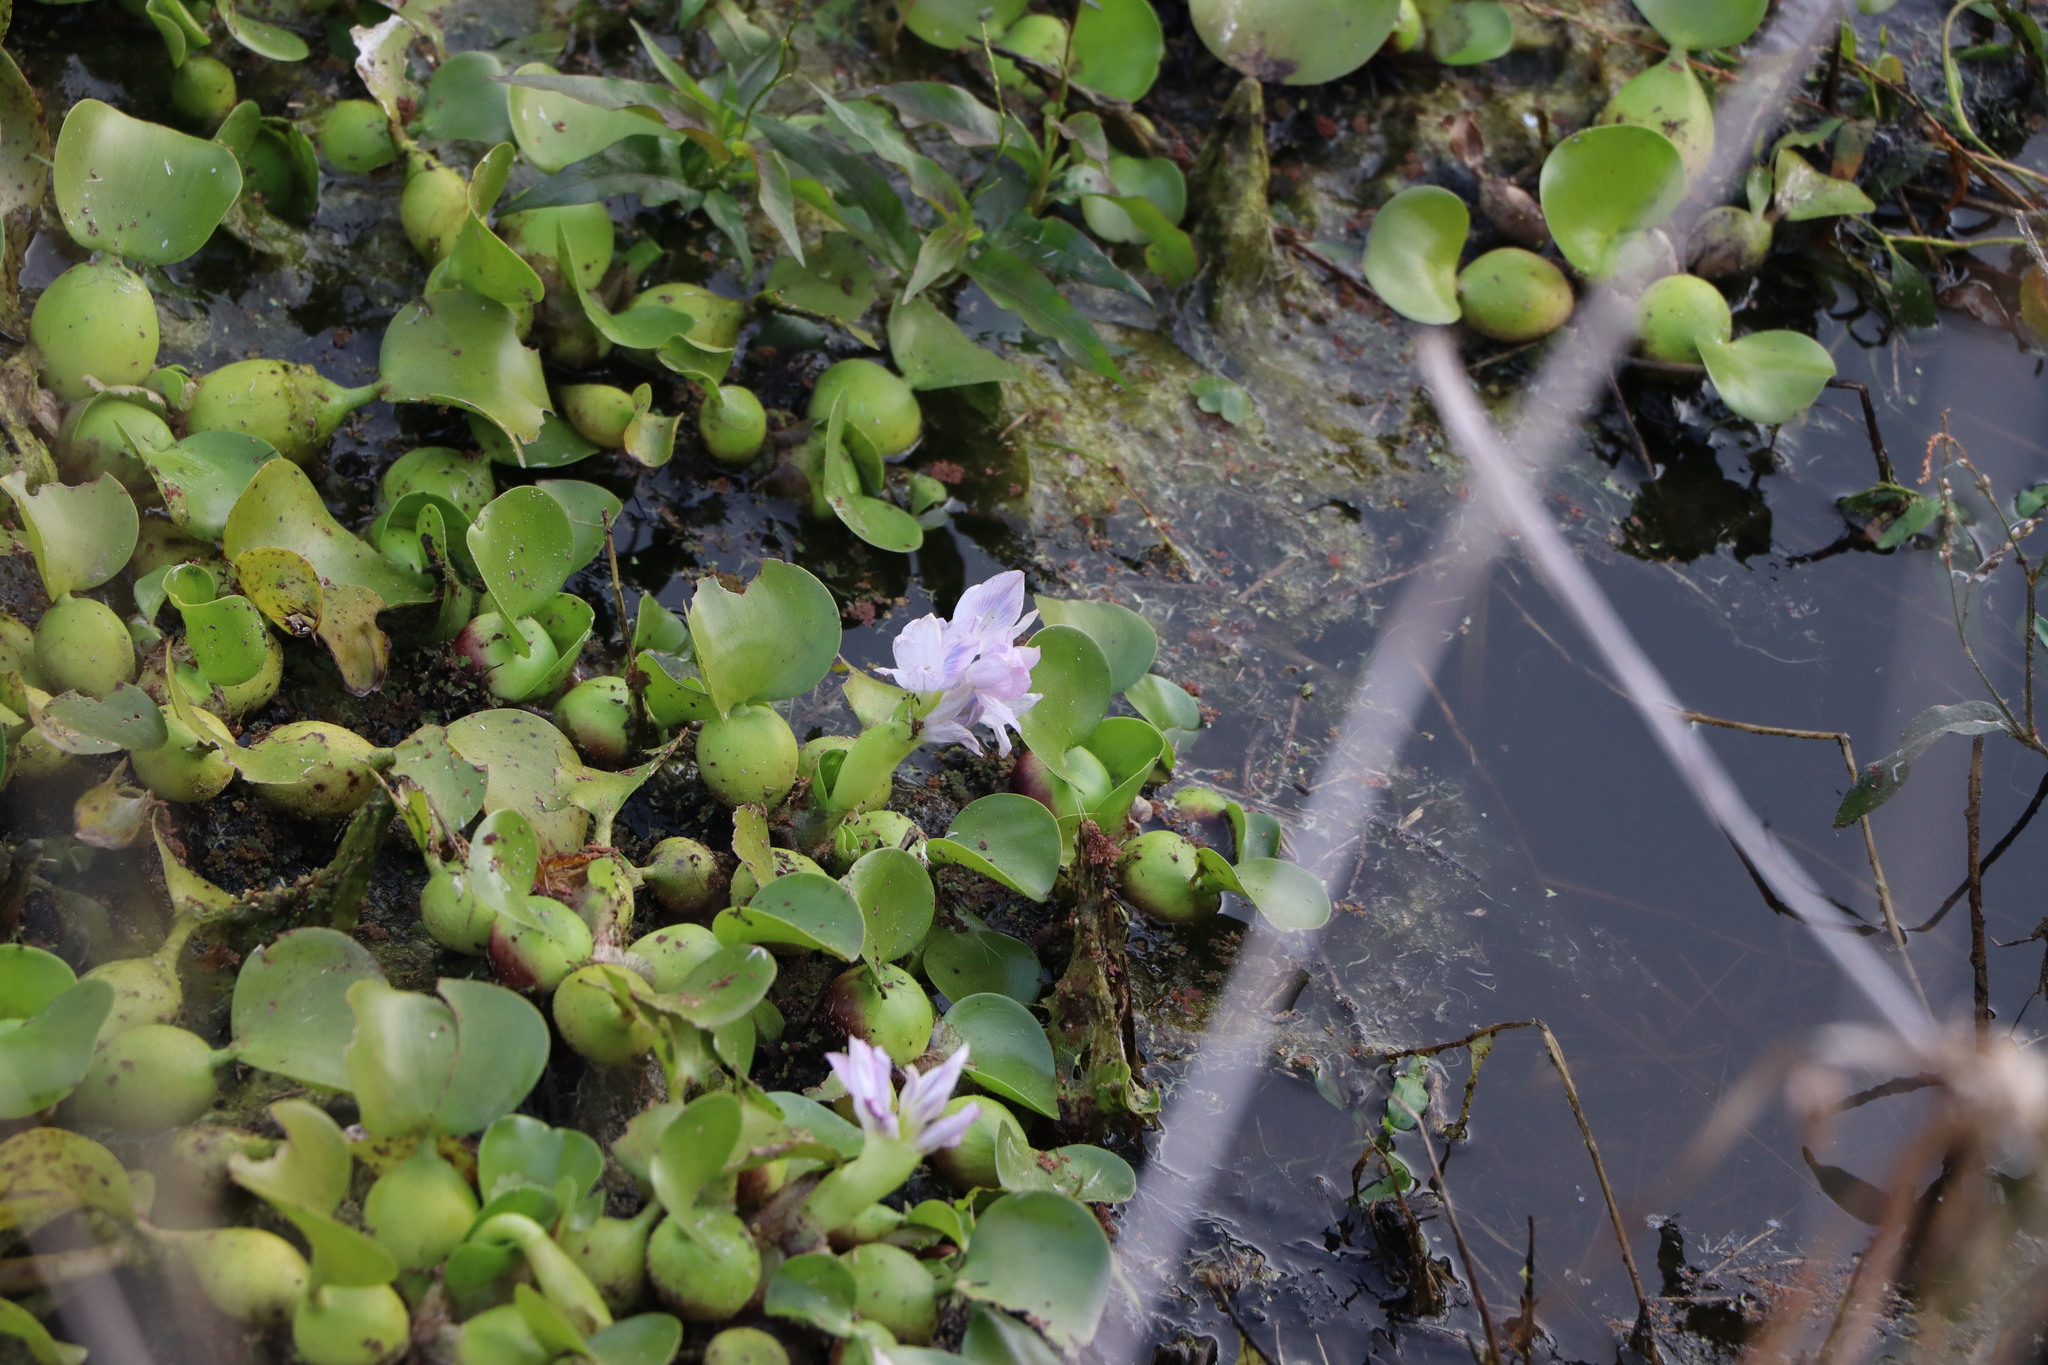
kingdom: Plantae
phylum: Tracheophyta
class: Liliopsida
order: Commelinales
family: Pontederiaceae
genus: Pontederia
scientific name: Pontederia crassipes
